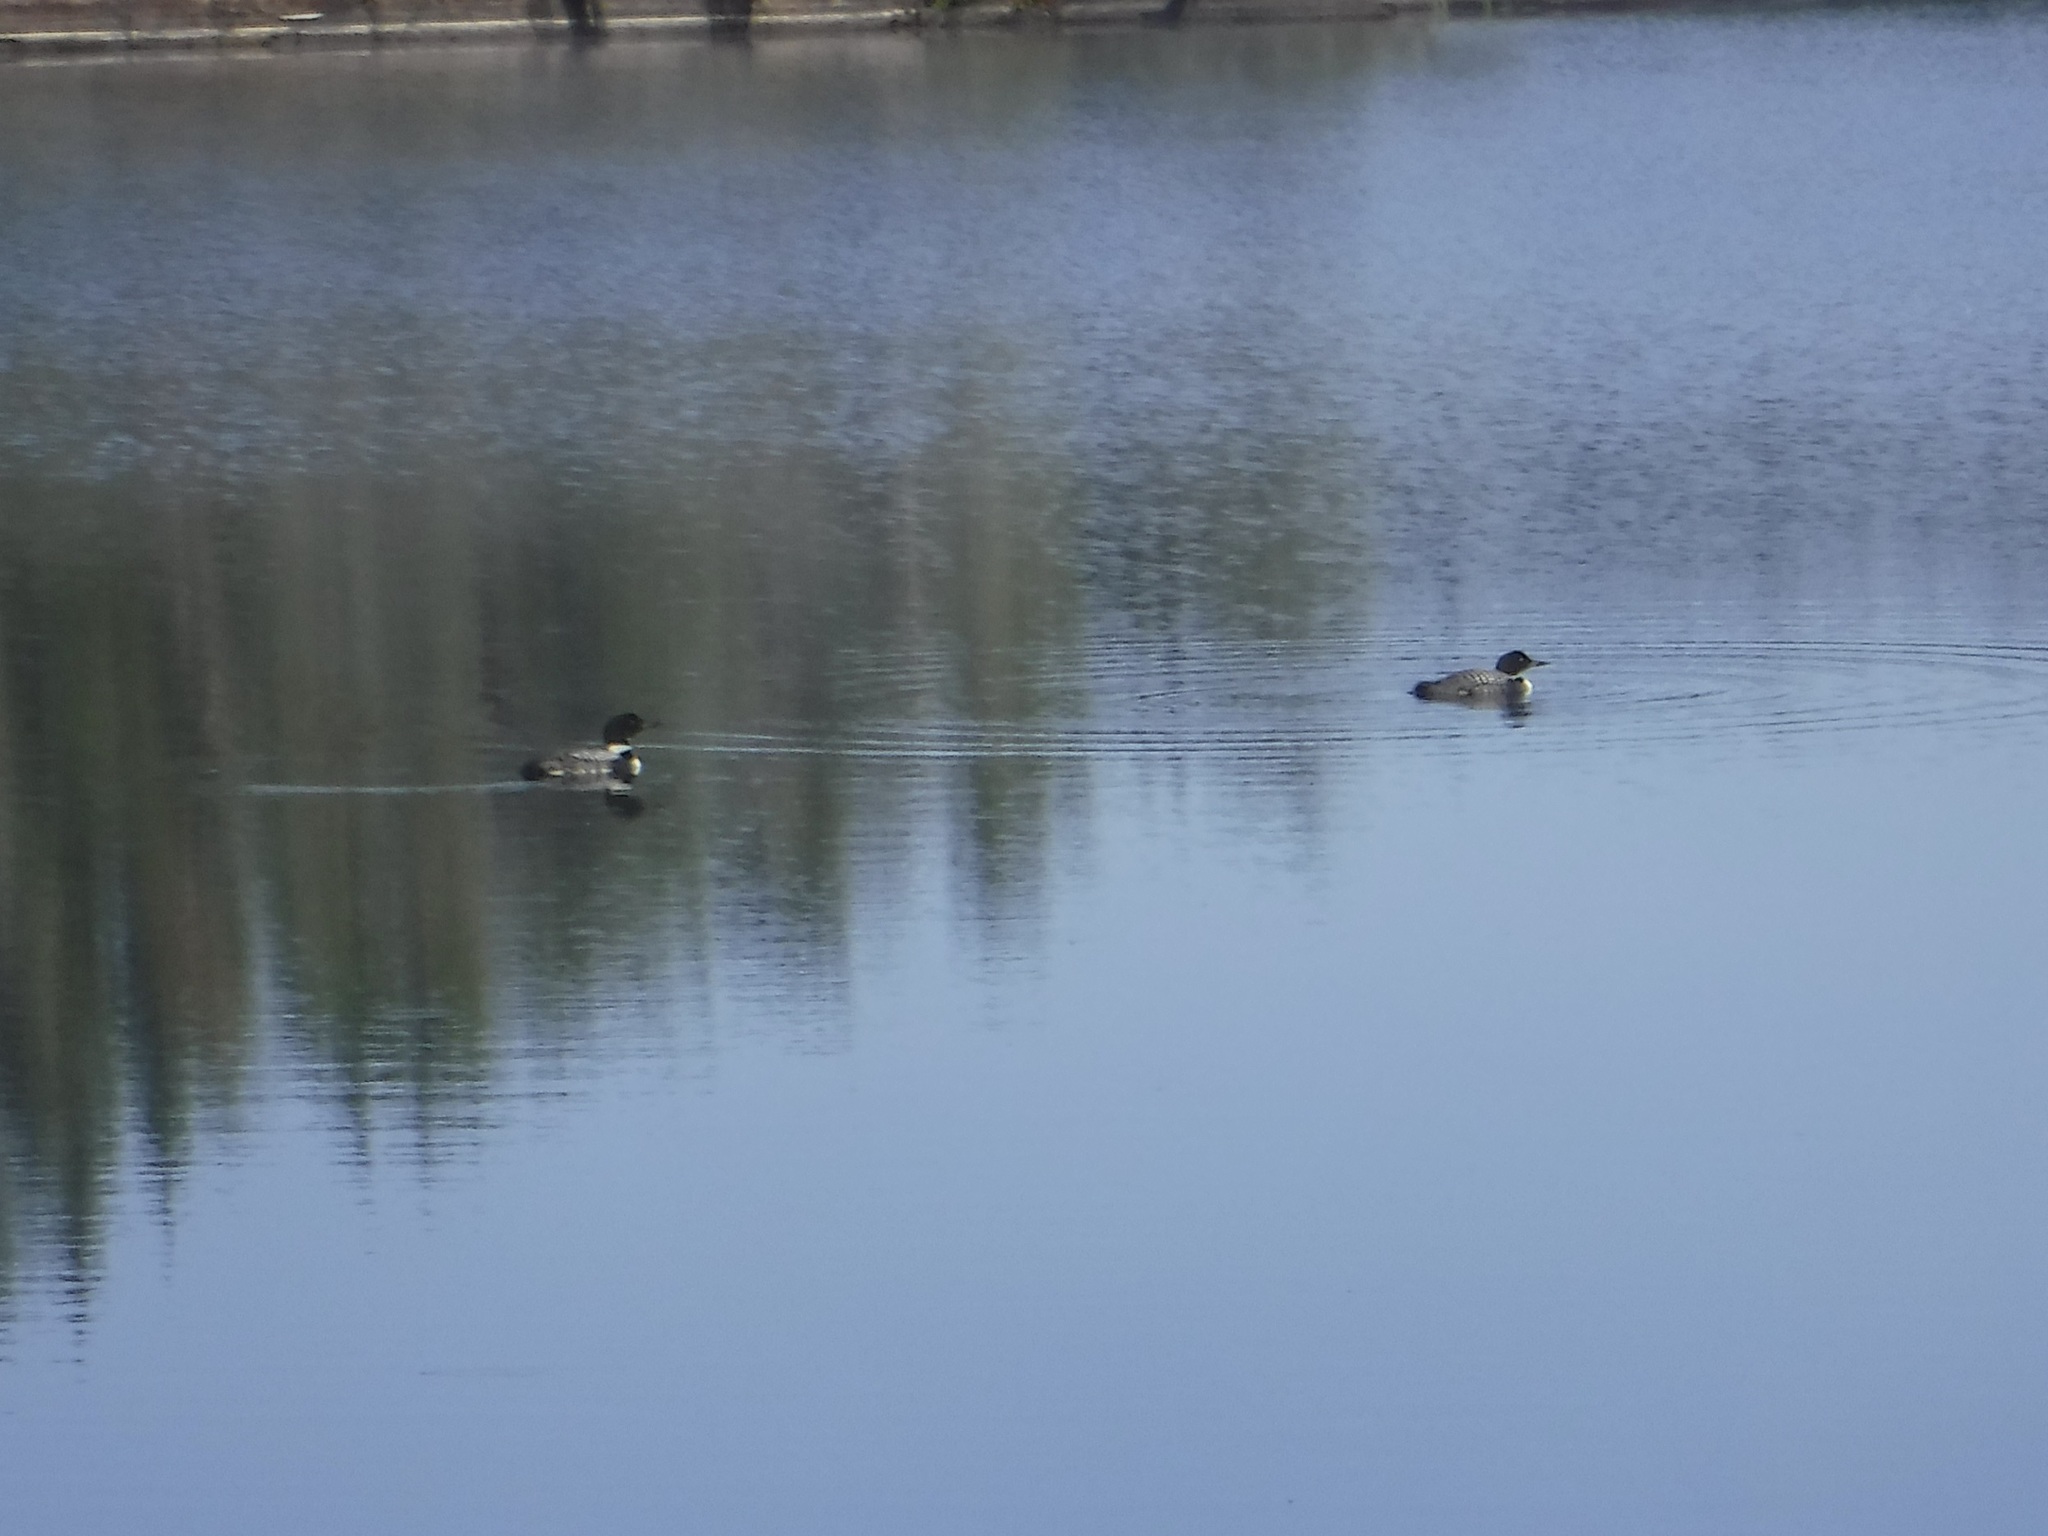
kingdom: Animalia
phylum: Chordata
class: Aves
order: Gaviiformes
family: Gaviidae
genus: Gavia
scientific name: Gavia immer
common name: Common loon
